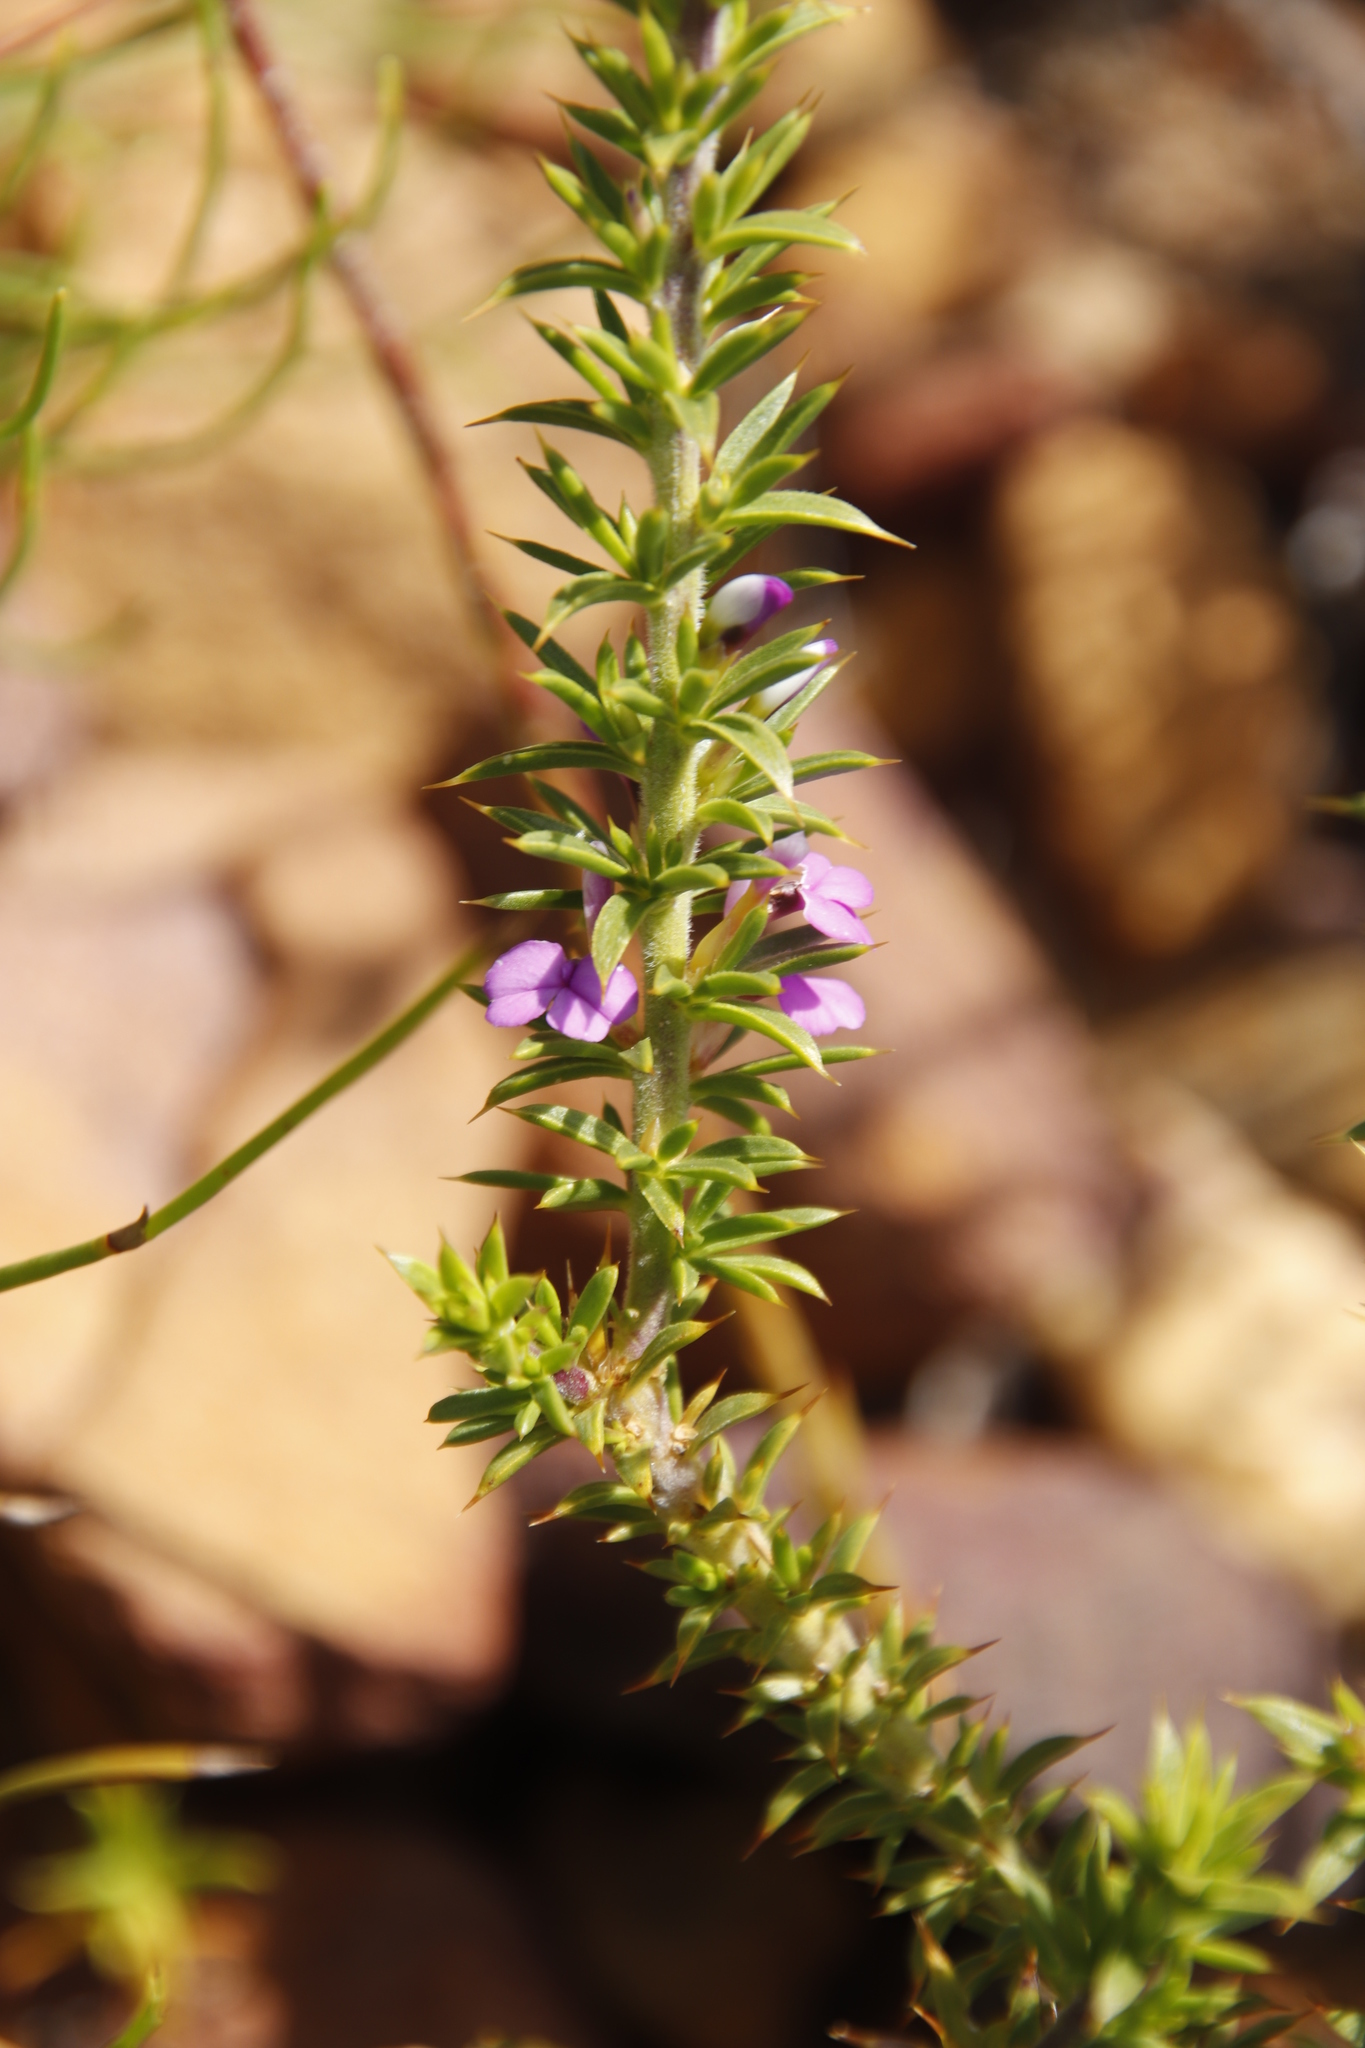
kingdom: Plantae
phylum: Tracheophyta
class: Magnoliopsida
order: Fabales
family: Polygalaceae
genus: Muraltia
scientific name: Muraltia heisteria
